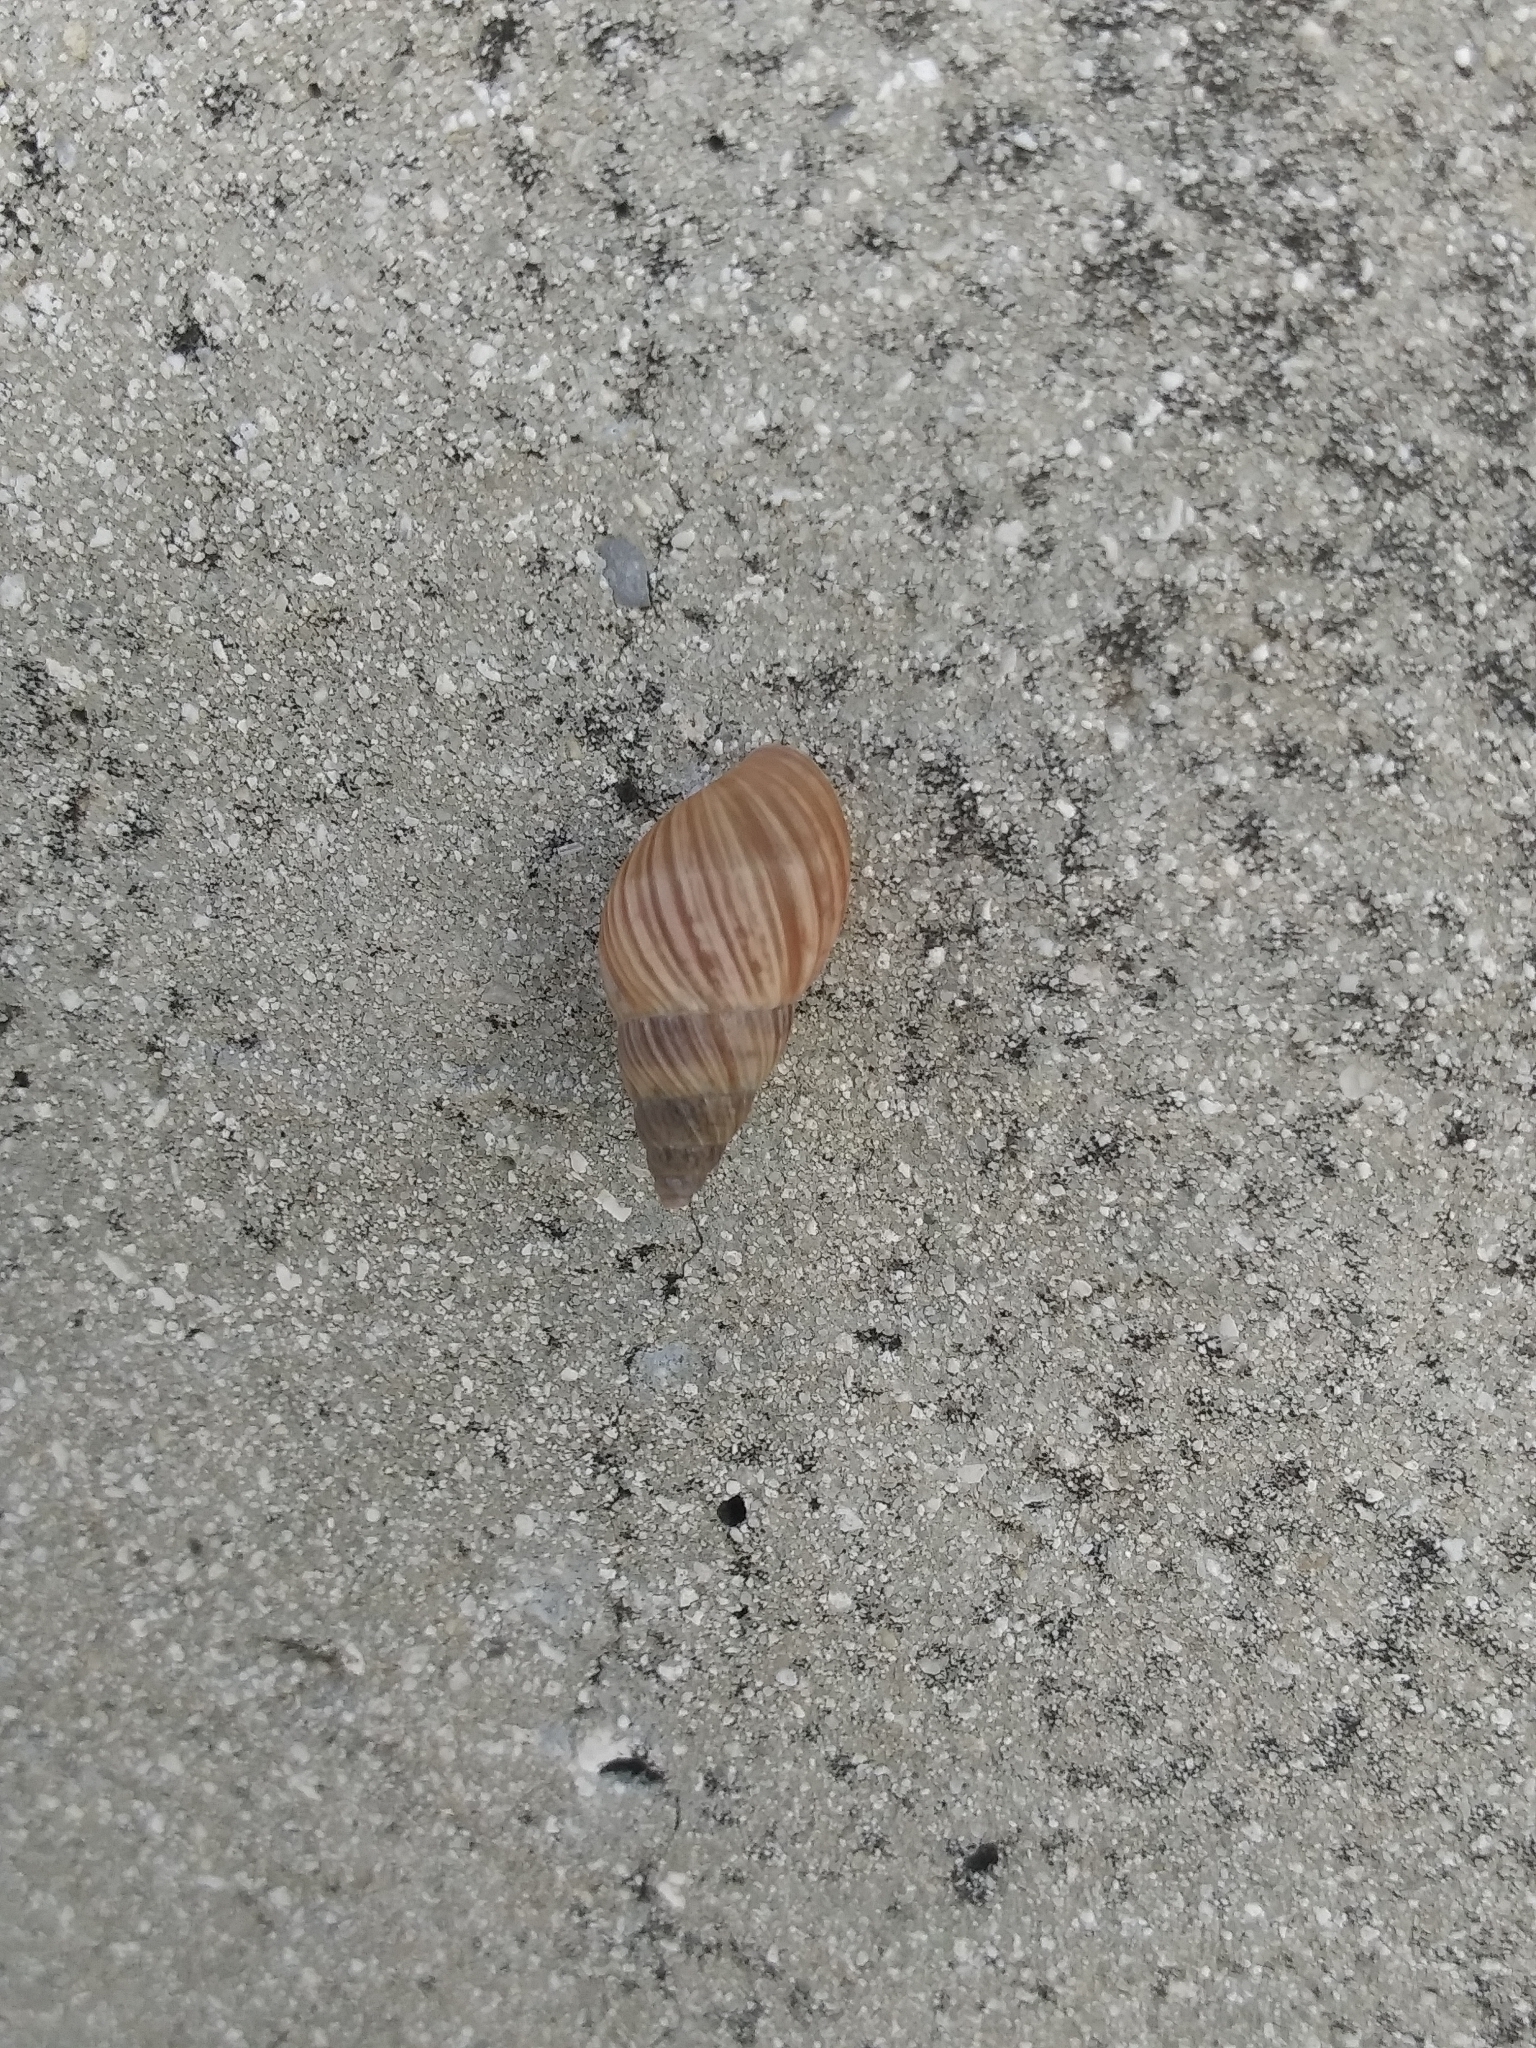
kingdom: Animalia
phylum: Mollusca
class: Gastropoda
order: Stylommatophora
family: Bulimulidae
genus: Bulimulus
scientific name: Bulimulus bonariensis
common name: Snail
